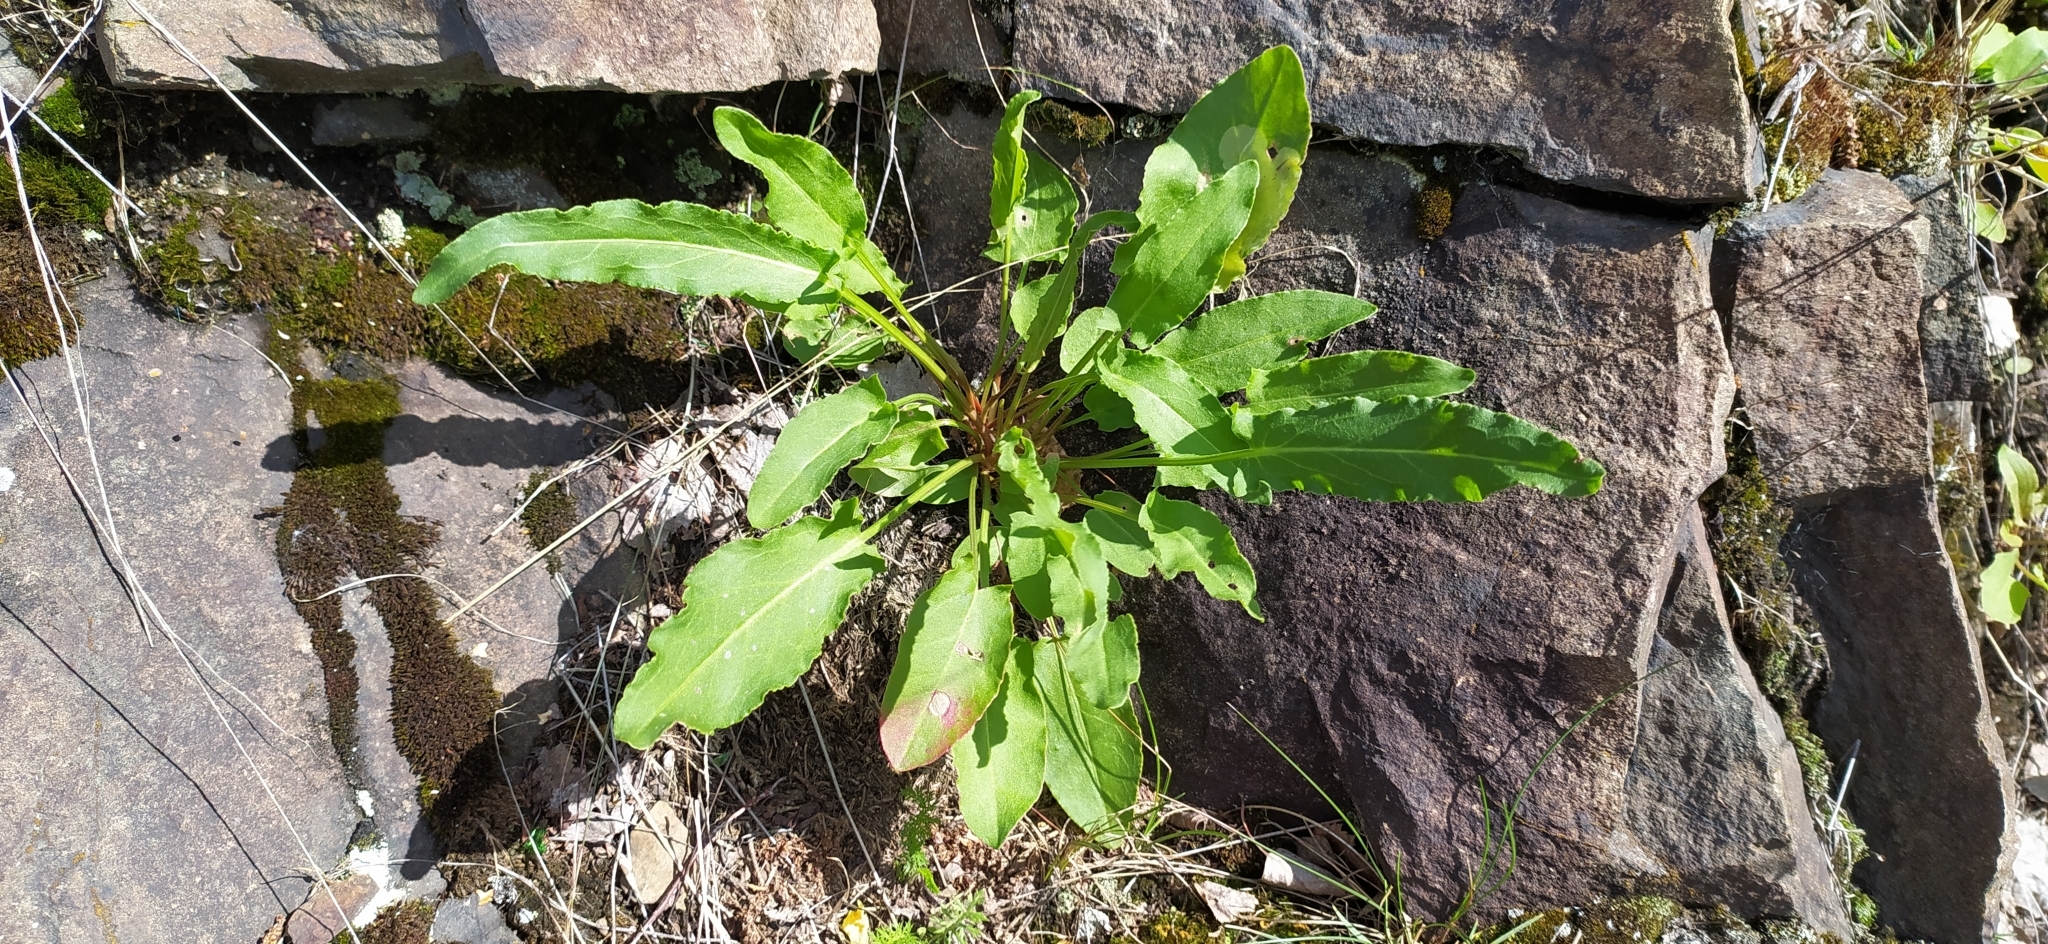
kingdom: Plantae
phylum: Tracheophyta
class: Magnoliopsida
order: Caryophyllales
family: Polygonaceae
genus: Rumex
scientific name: Rumex thyrsiflorus
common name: Garden sorrel
